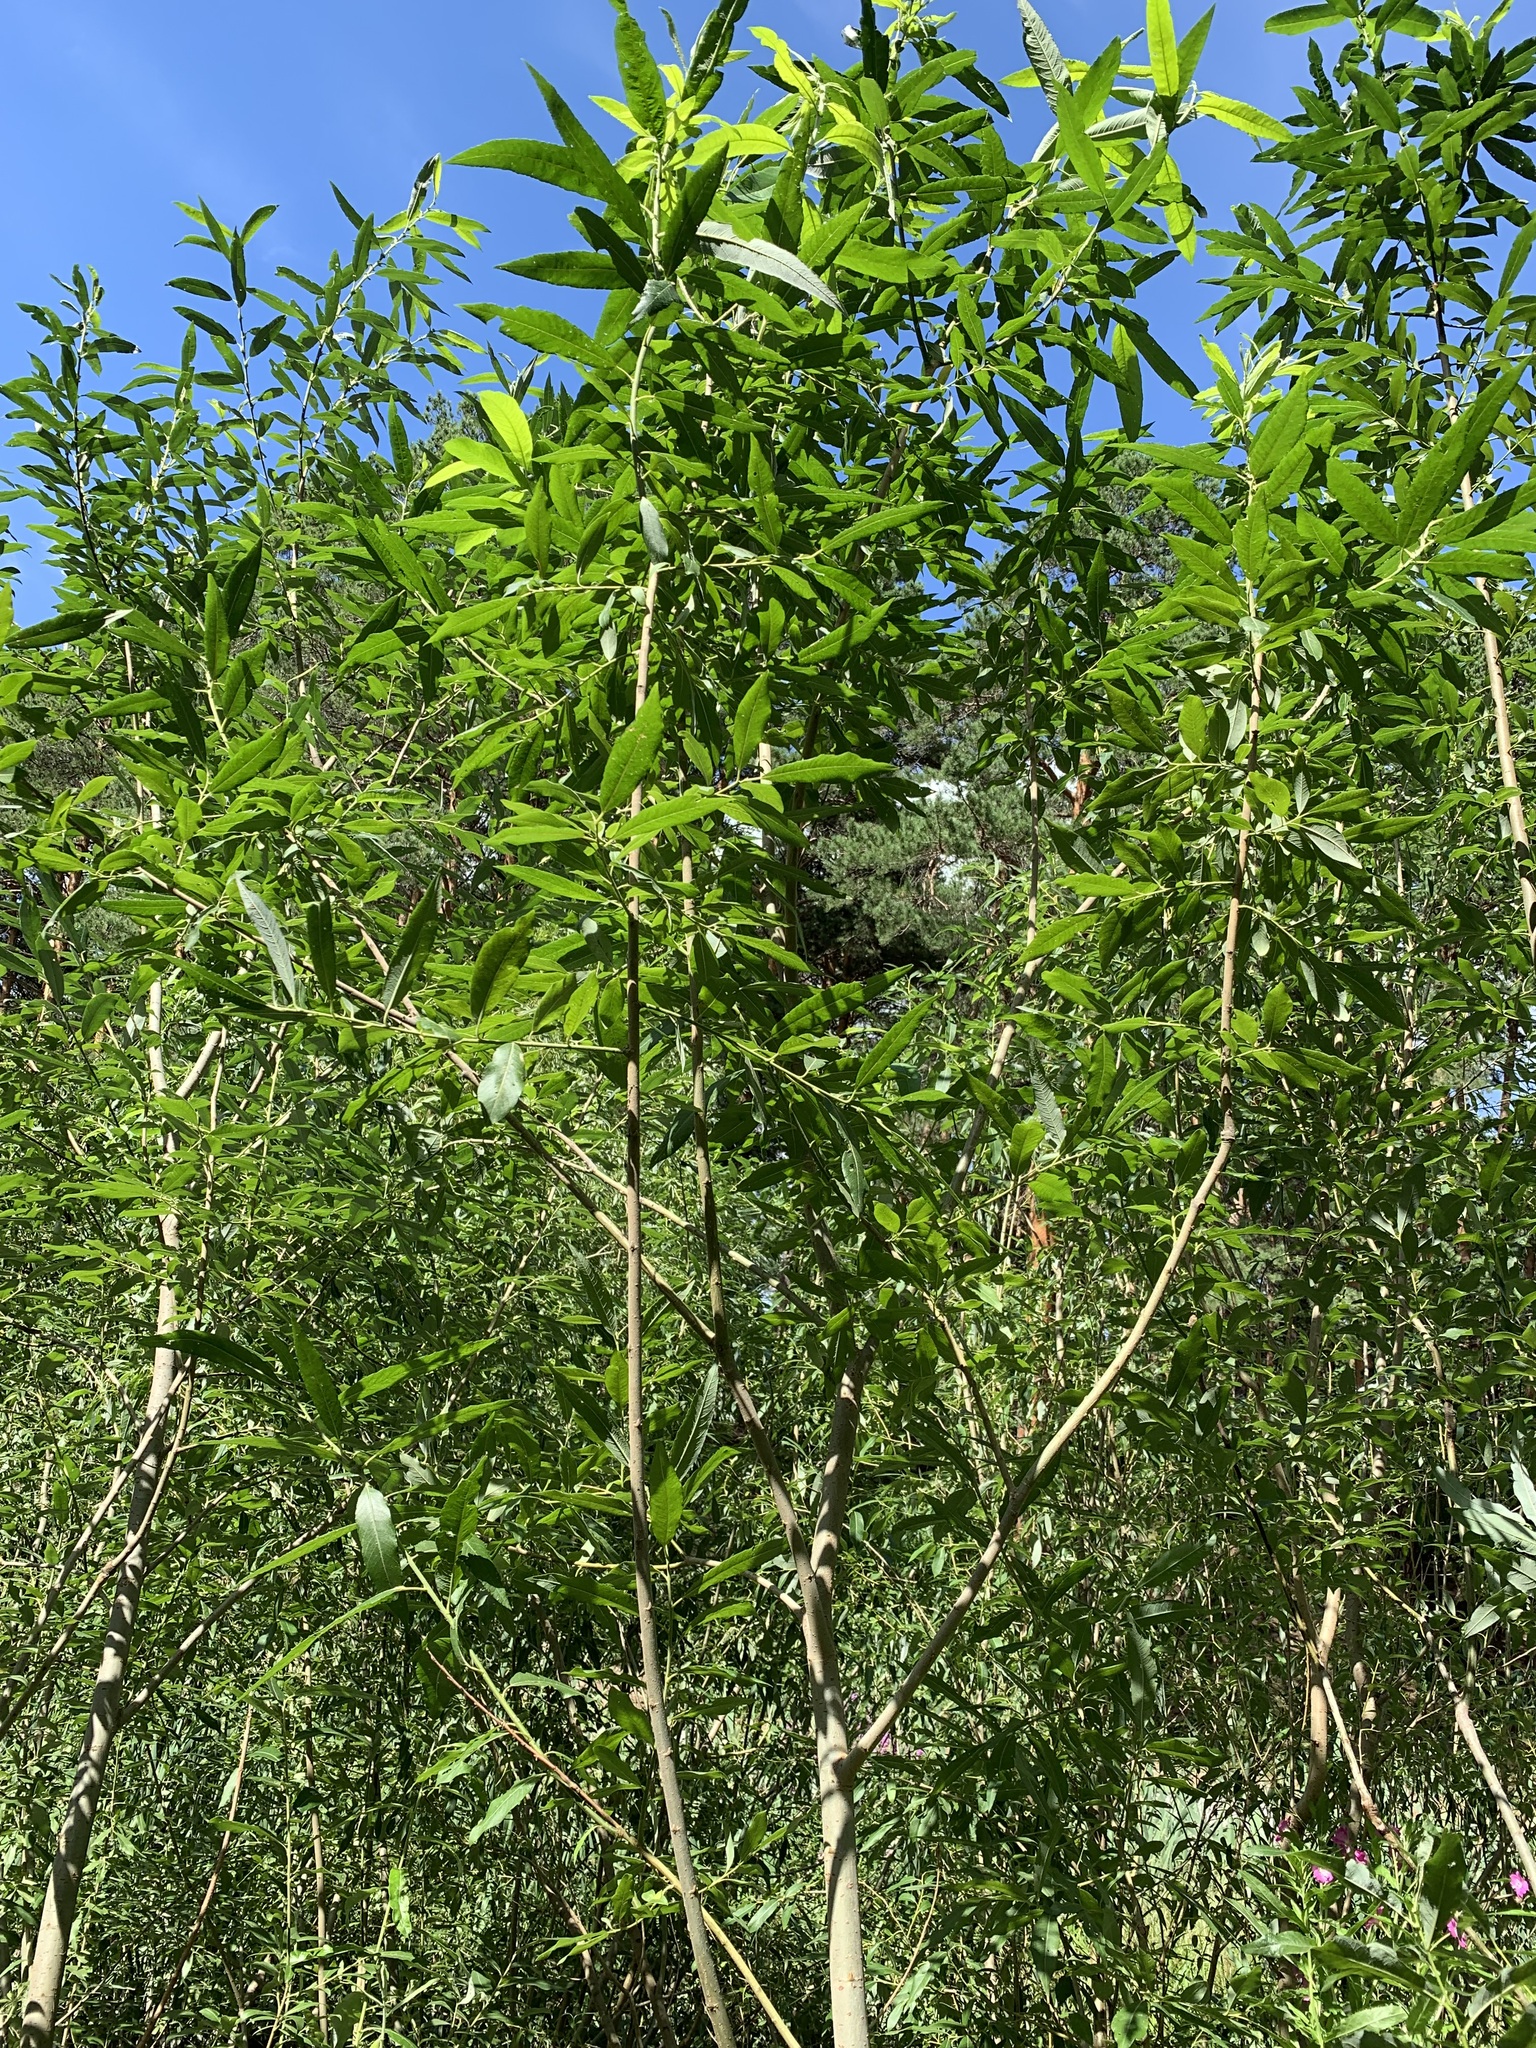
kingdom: Plantae
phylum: Tracheophyta
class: Magnoliopsida
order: Malpighiales
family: Salicaceae
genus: Salix
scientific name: Salix gmelinii
